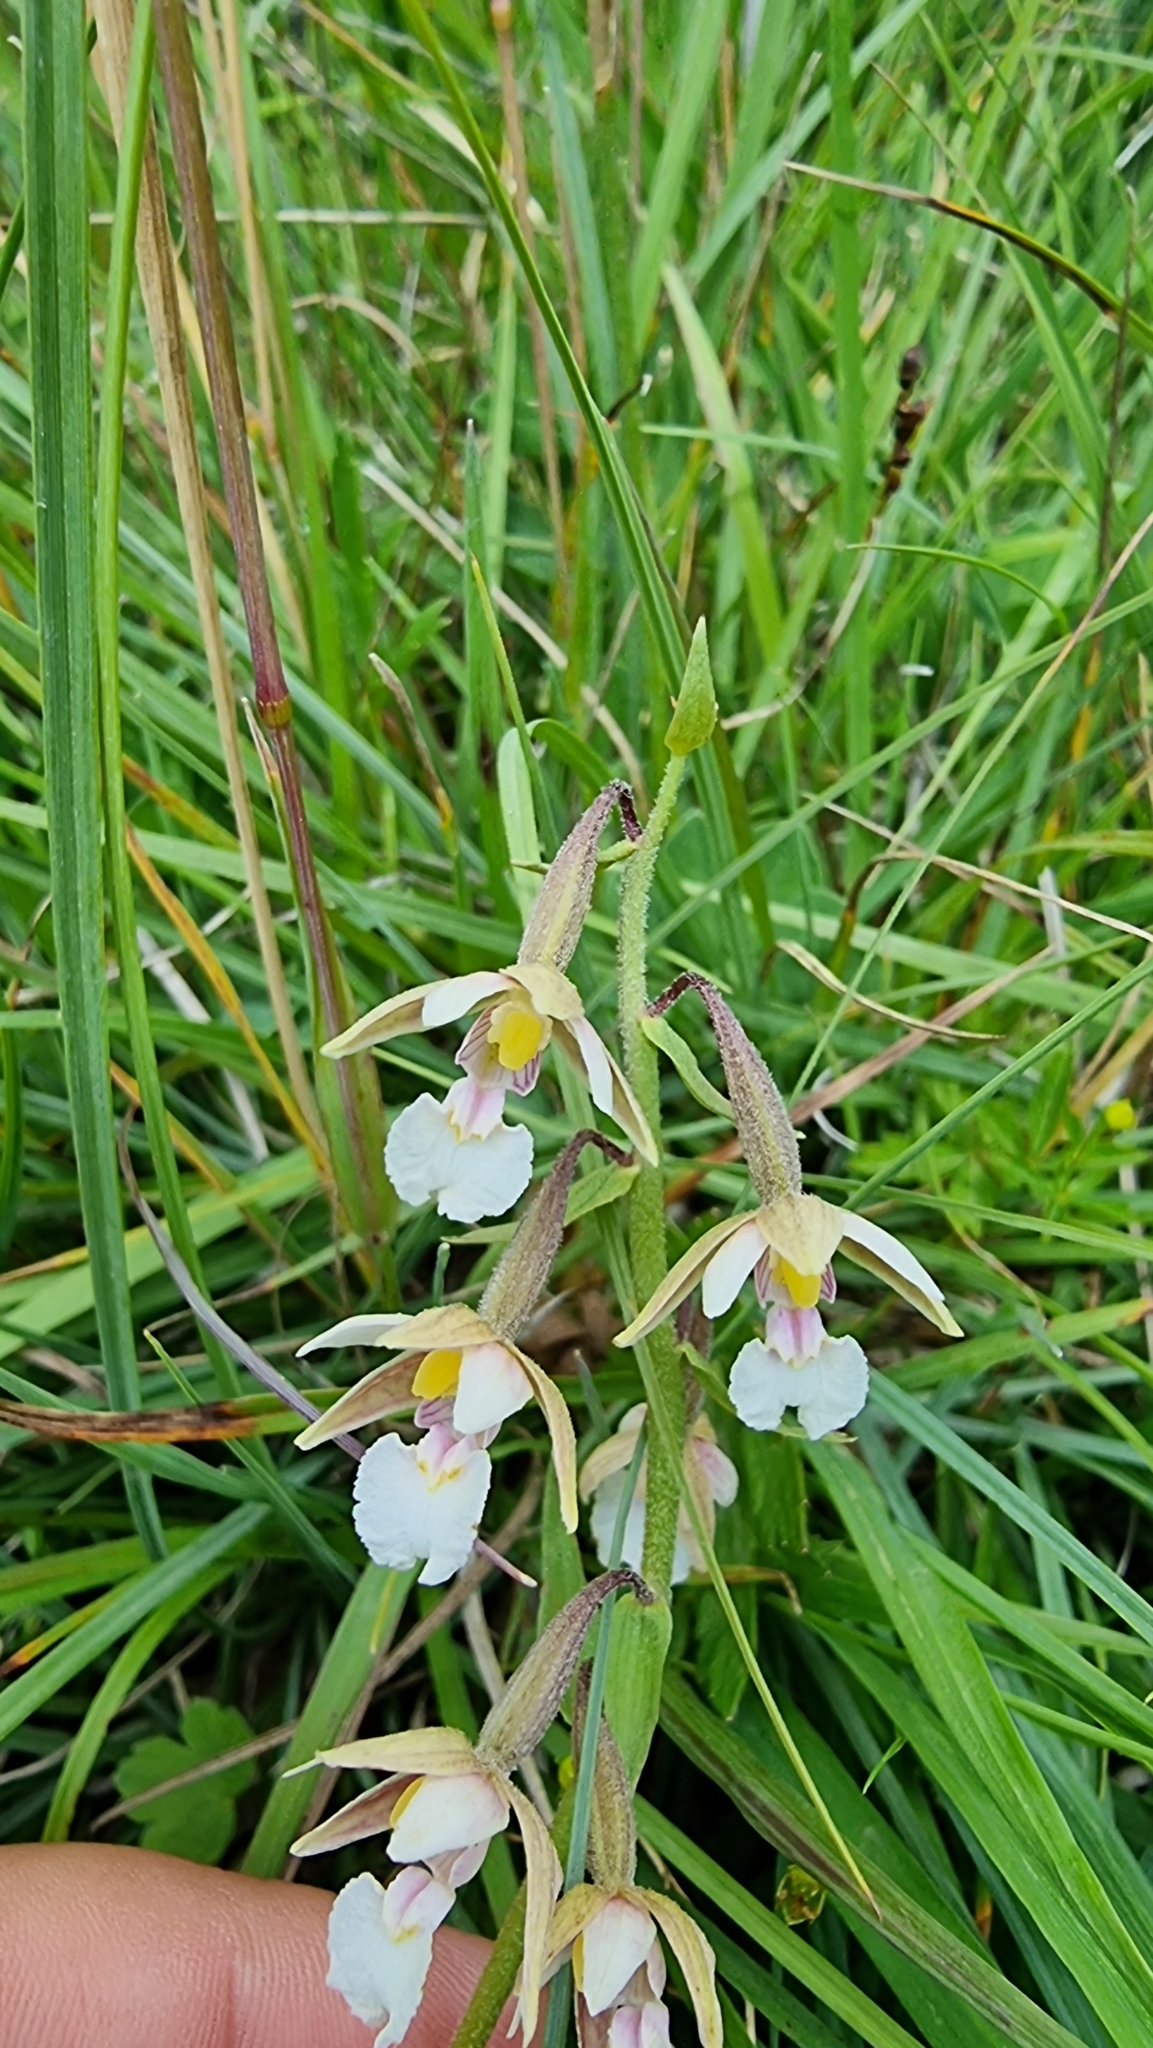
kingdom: Plantae
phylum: Tracheophyta
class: Liliopsida
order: Asparagales
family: Orchidaceae
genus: Epipactis
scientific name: Epipactis palustris
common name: Marsh helleborine
